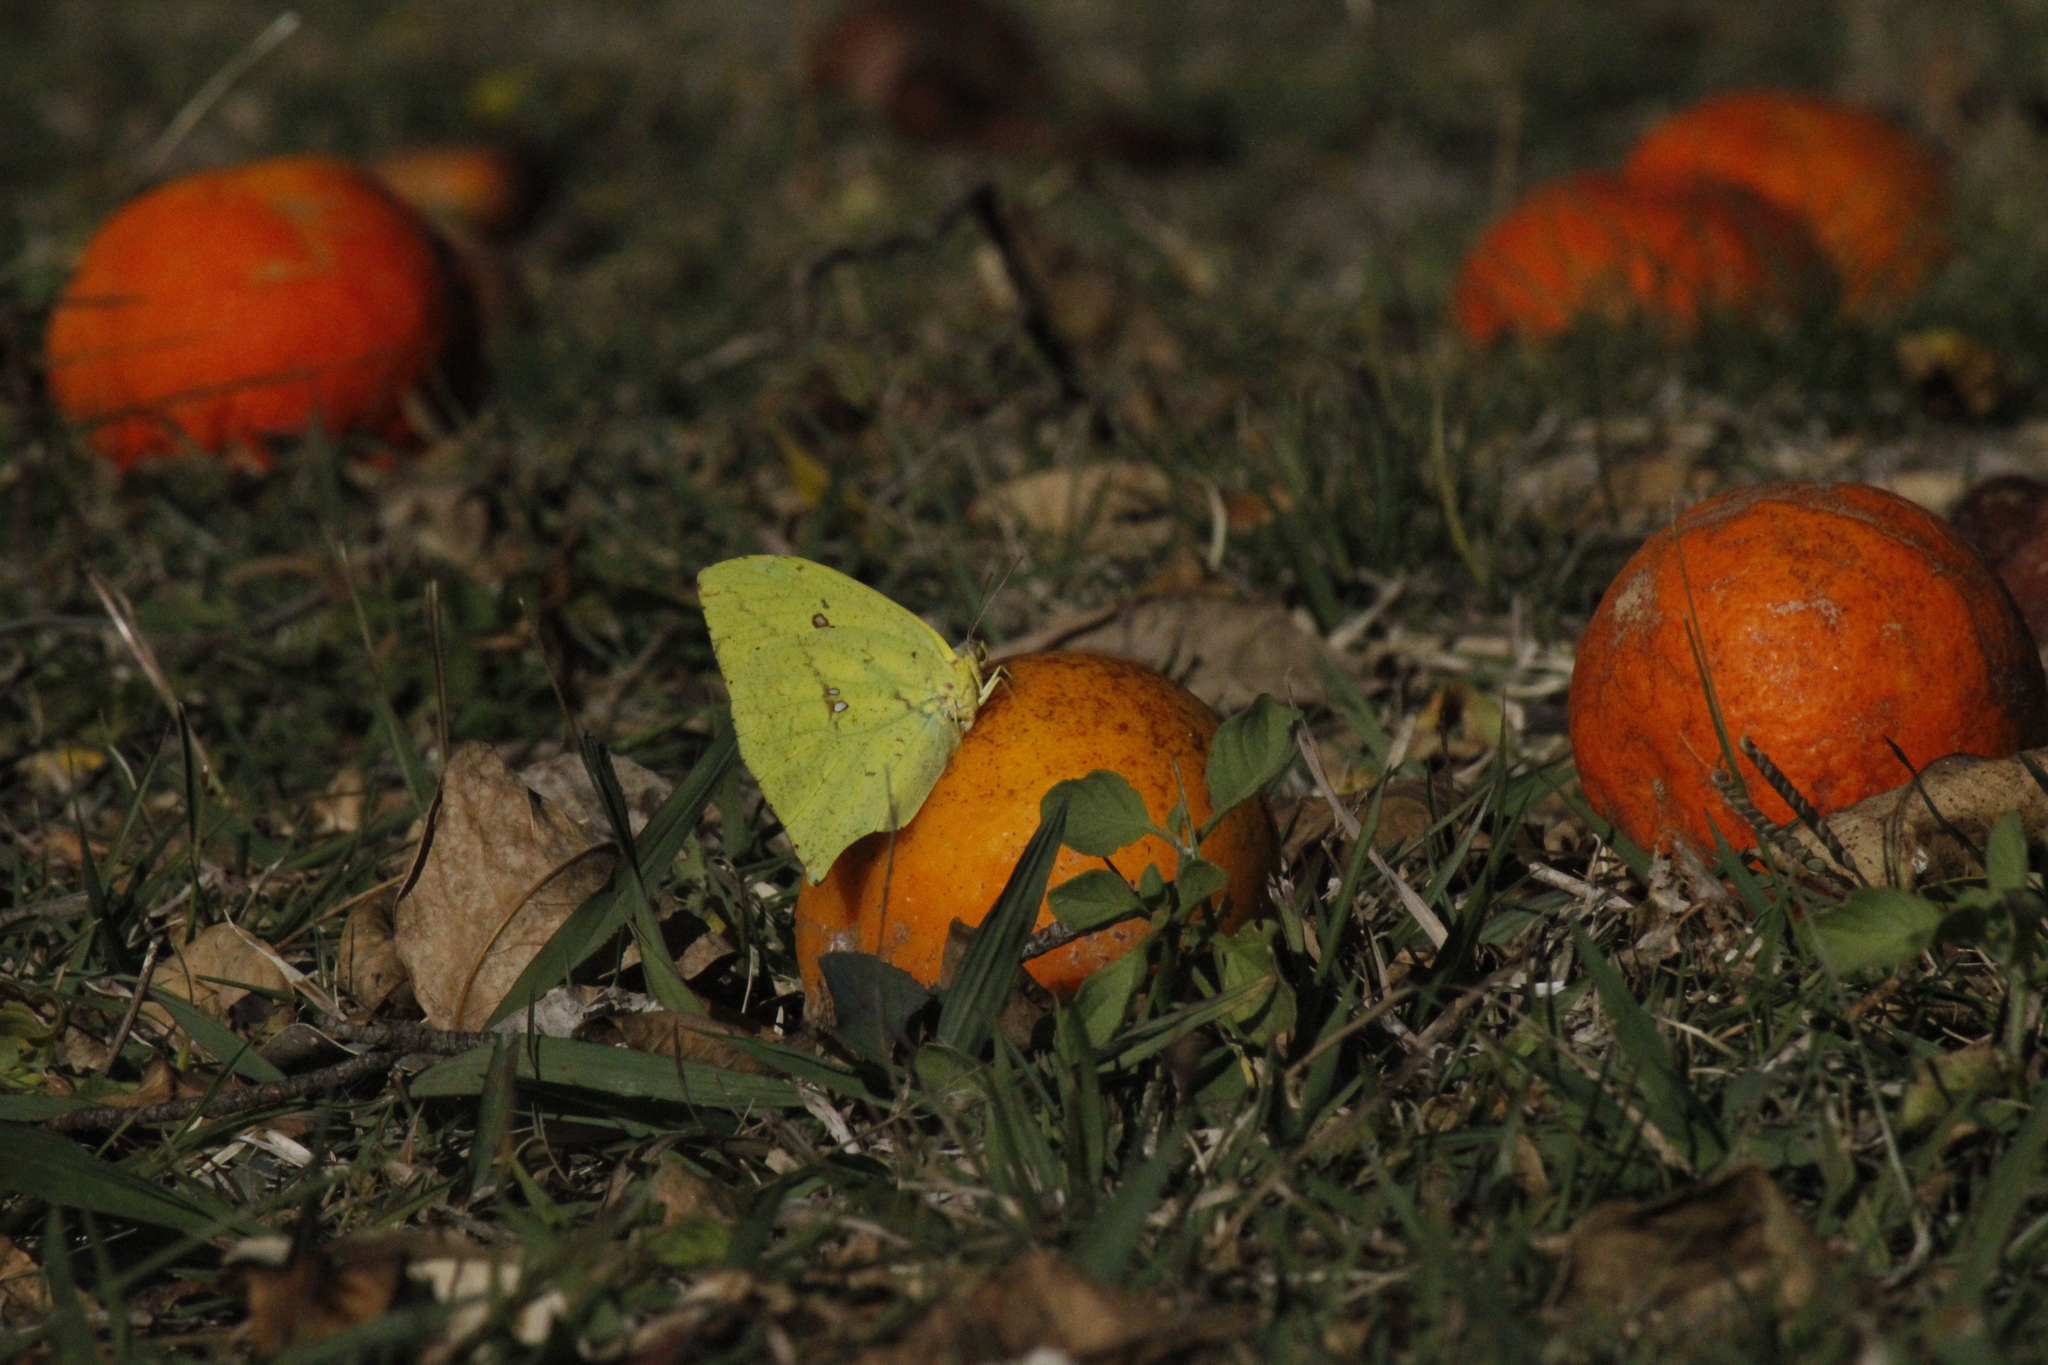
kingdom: Animalia
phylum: Arthropoda
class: Insecta
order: Lepidoptera
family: Pieridae
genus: Phoebis
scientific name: Phoebis neocypris
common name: Tailed sulphur
